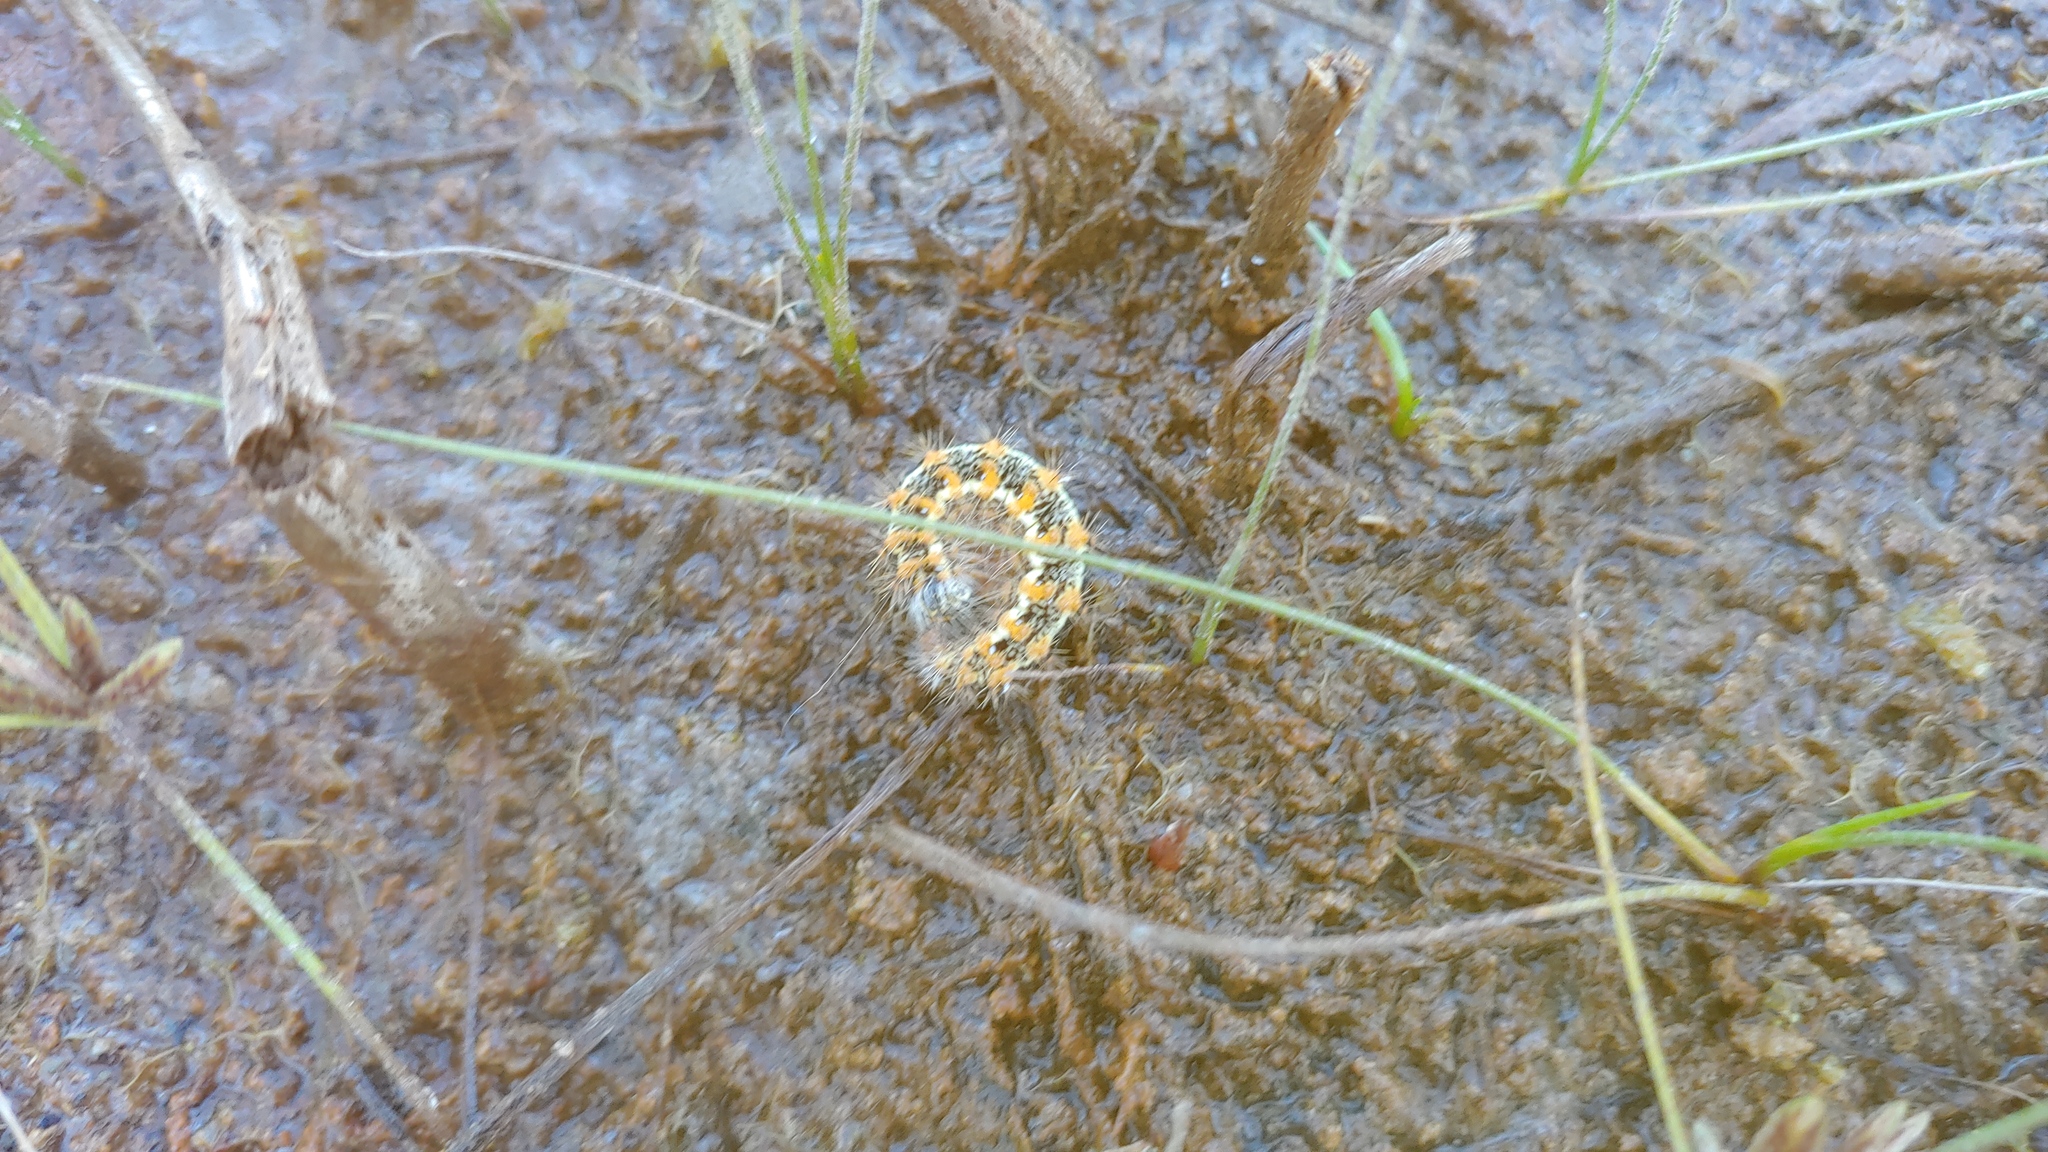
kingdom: Animalia
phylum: Arthropoda
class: Insecta
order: Lepidoptera
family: Noctuidae
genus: Acronicta
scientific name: Acronicta insularis
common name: Henry's marsh moth
